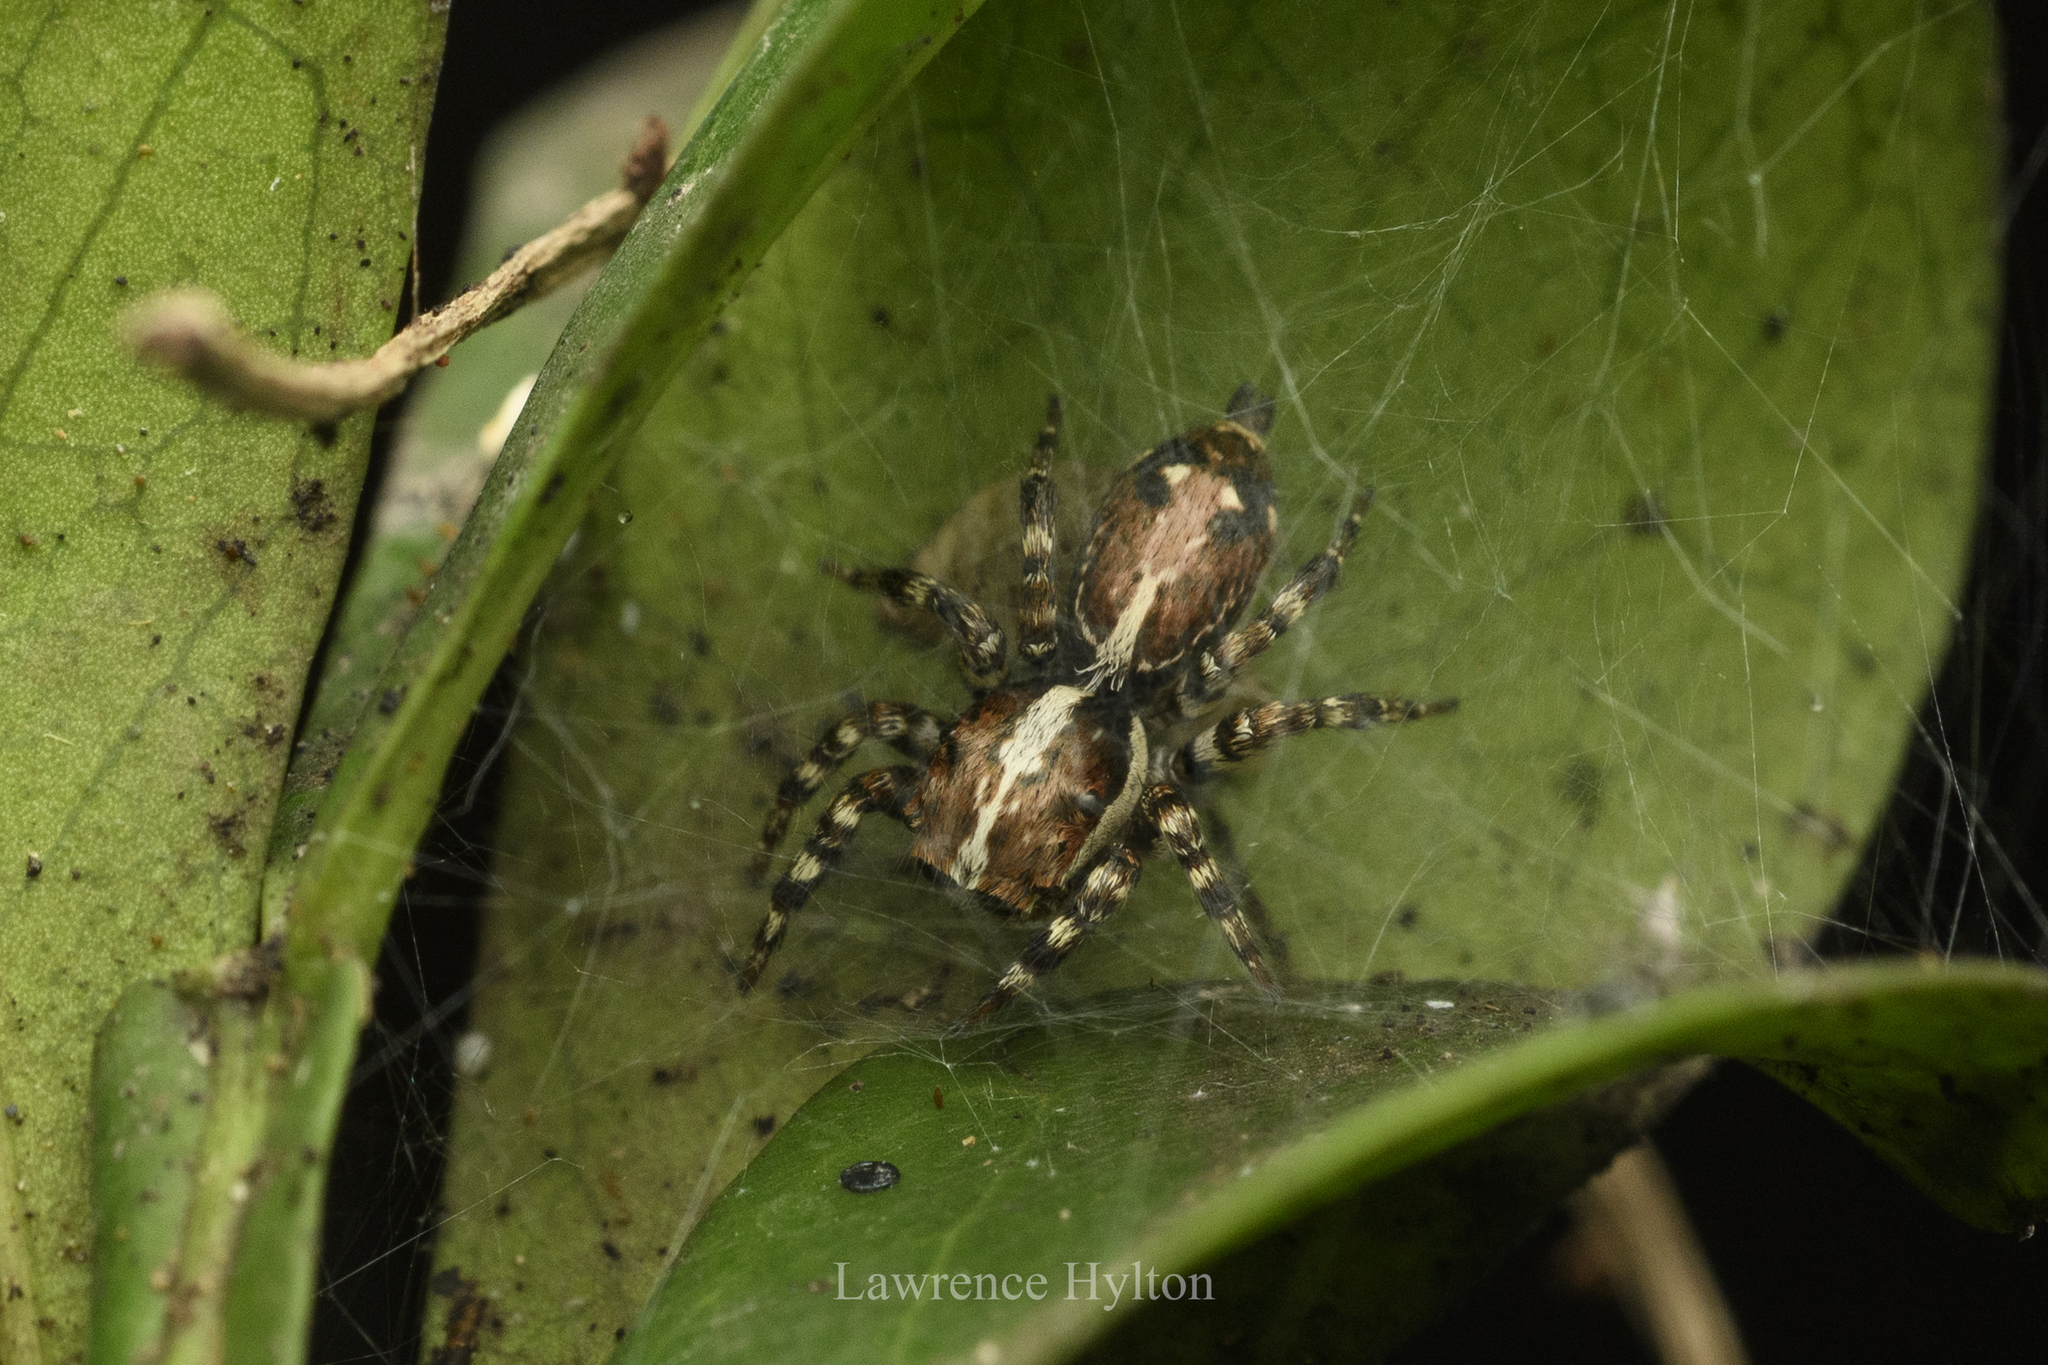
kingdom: Animalia
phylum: Arthropoda
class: Arachnida
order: Araneae
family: Salticidae
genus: Thyene
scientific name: Thyene orientalis
